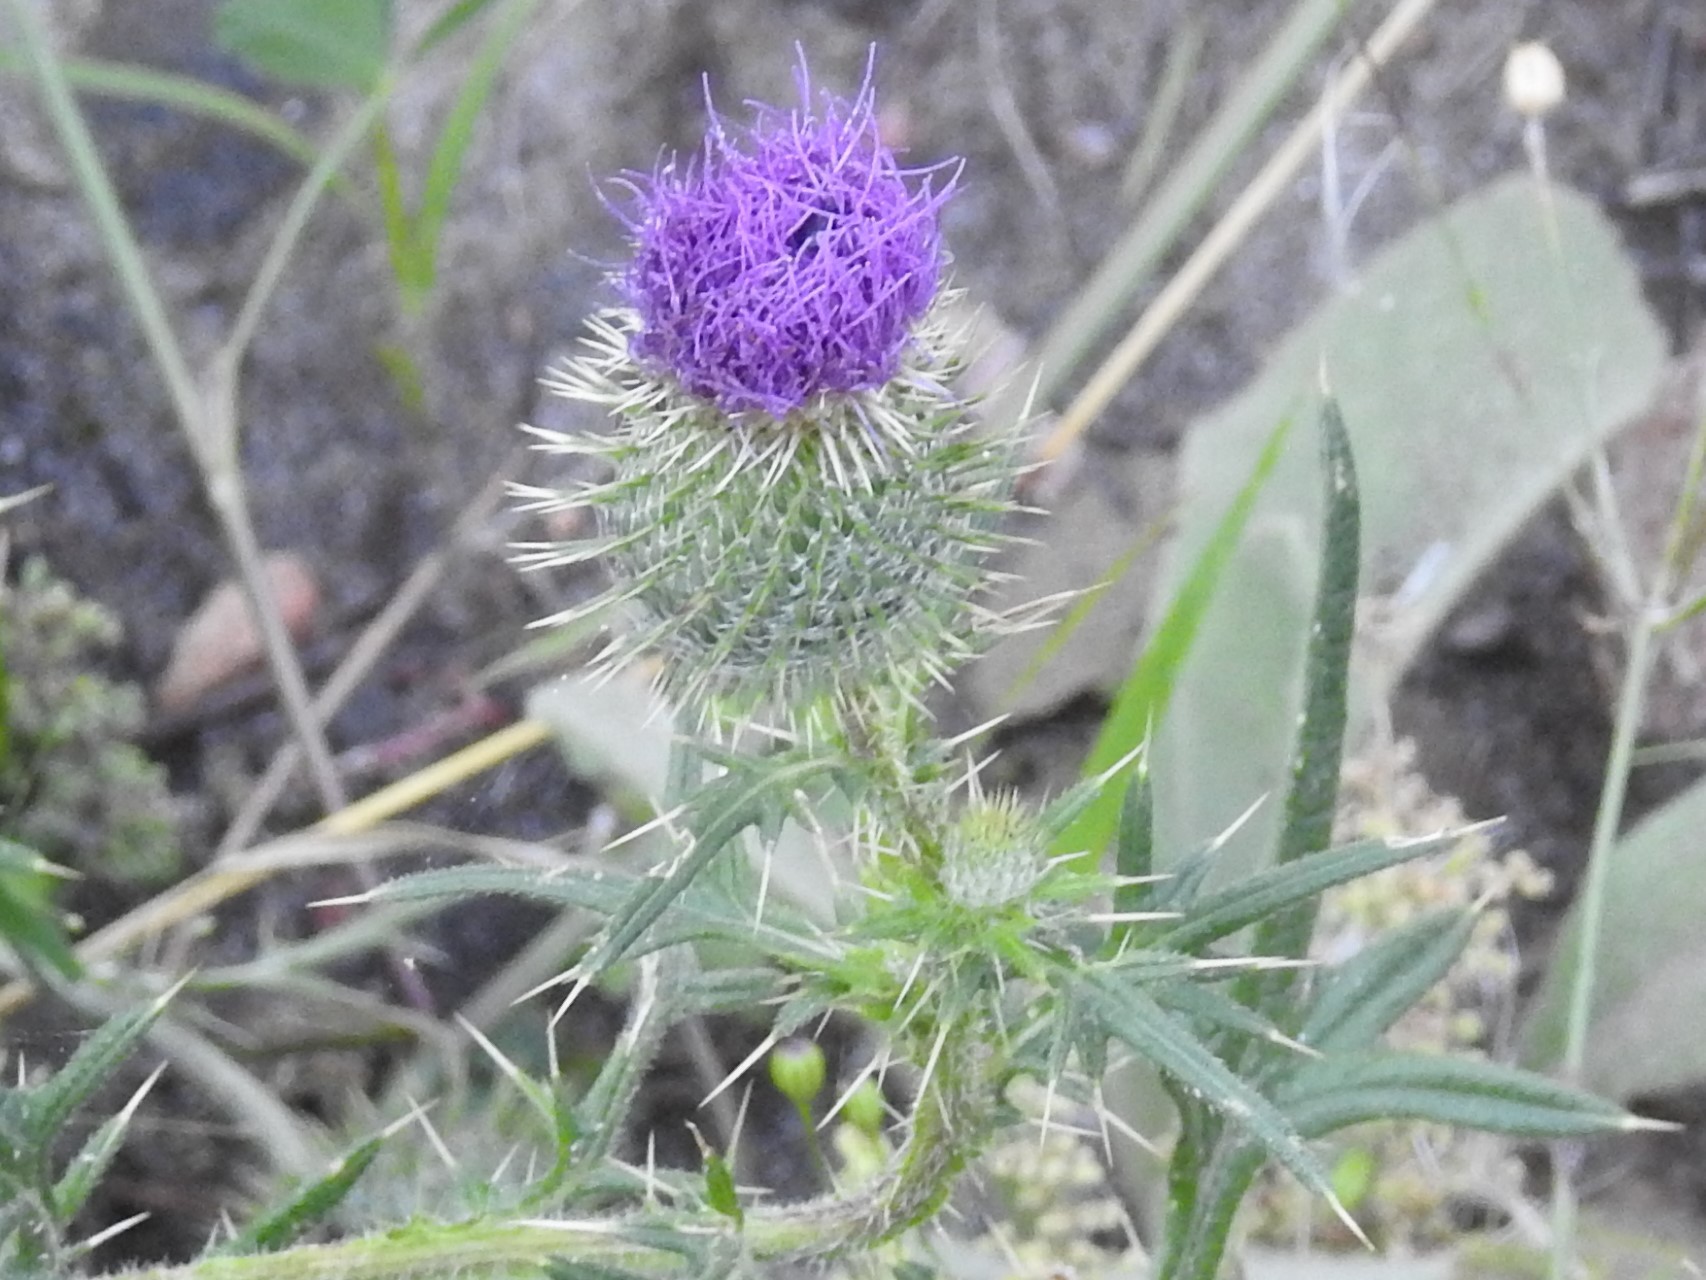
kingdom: Plantae
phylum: Tracheophyta
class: Magnoliopsida
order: Asterales
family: Asteraceae
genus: Cirsium
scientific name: Cirsium vulgare
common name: Bull thistle
